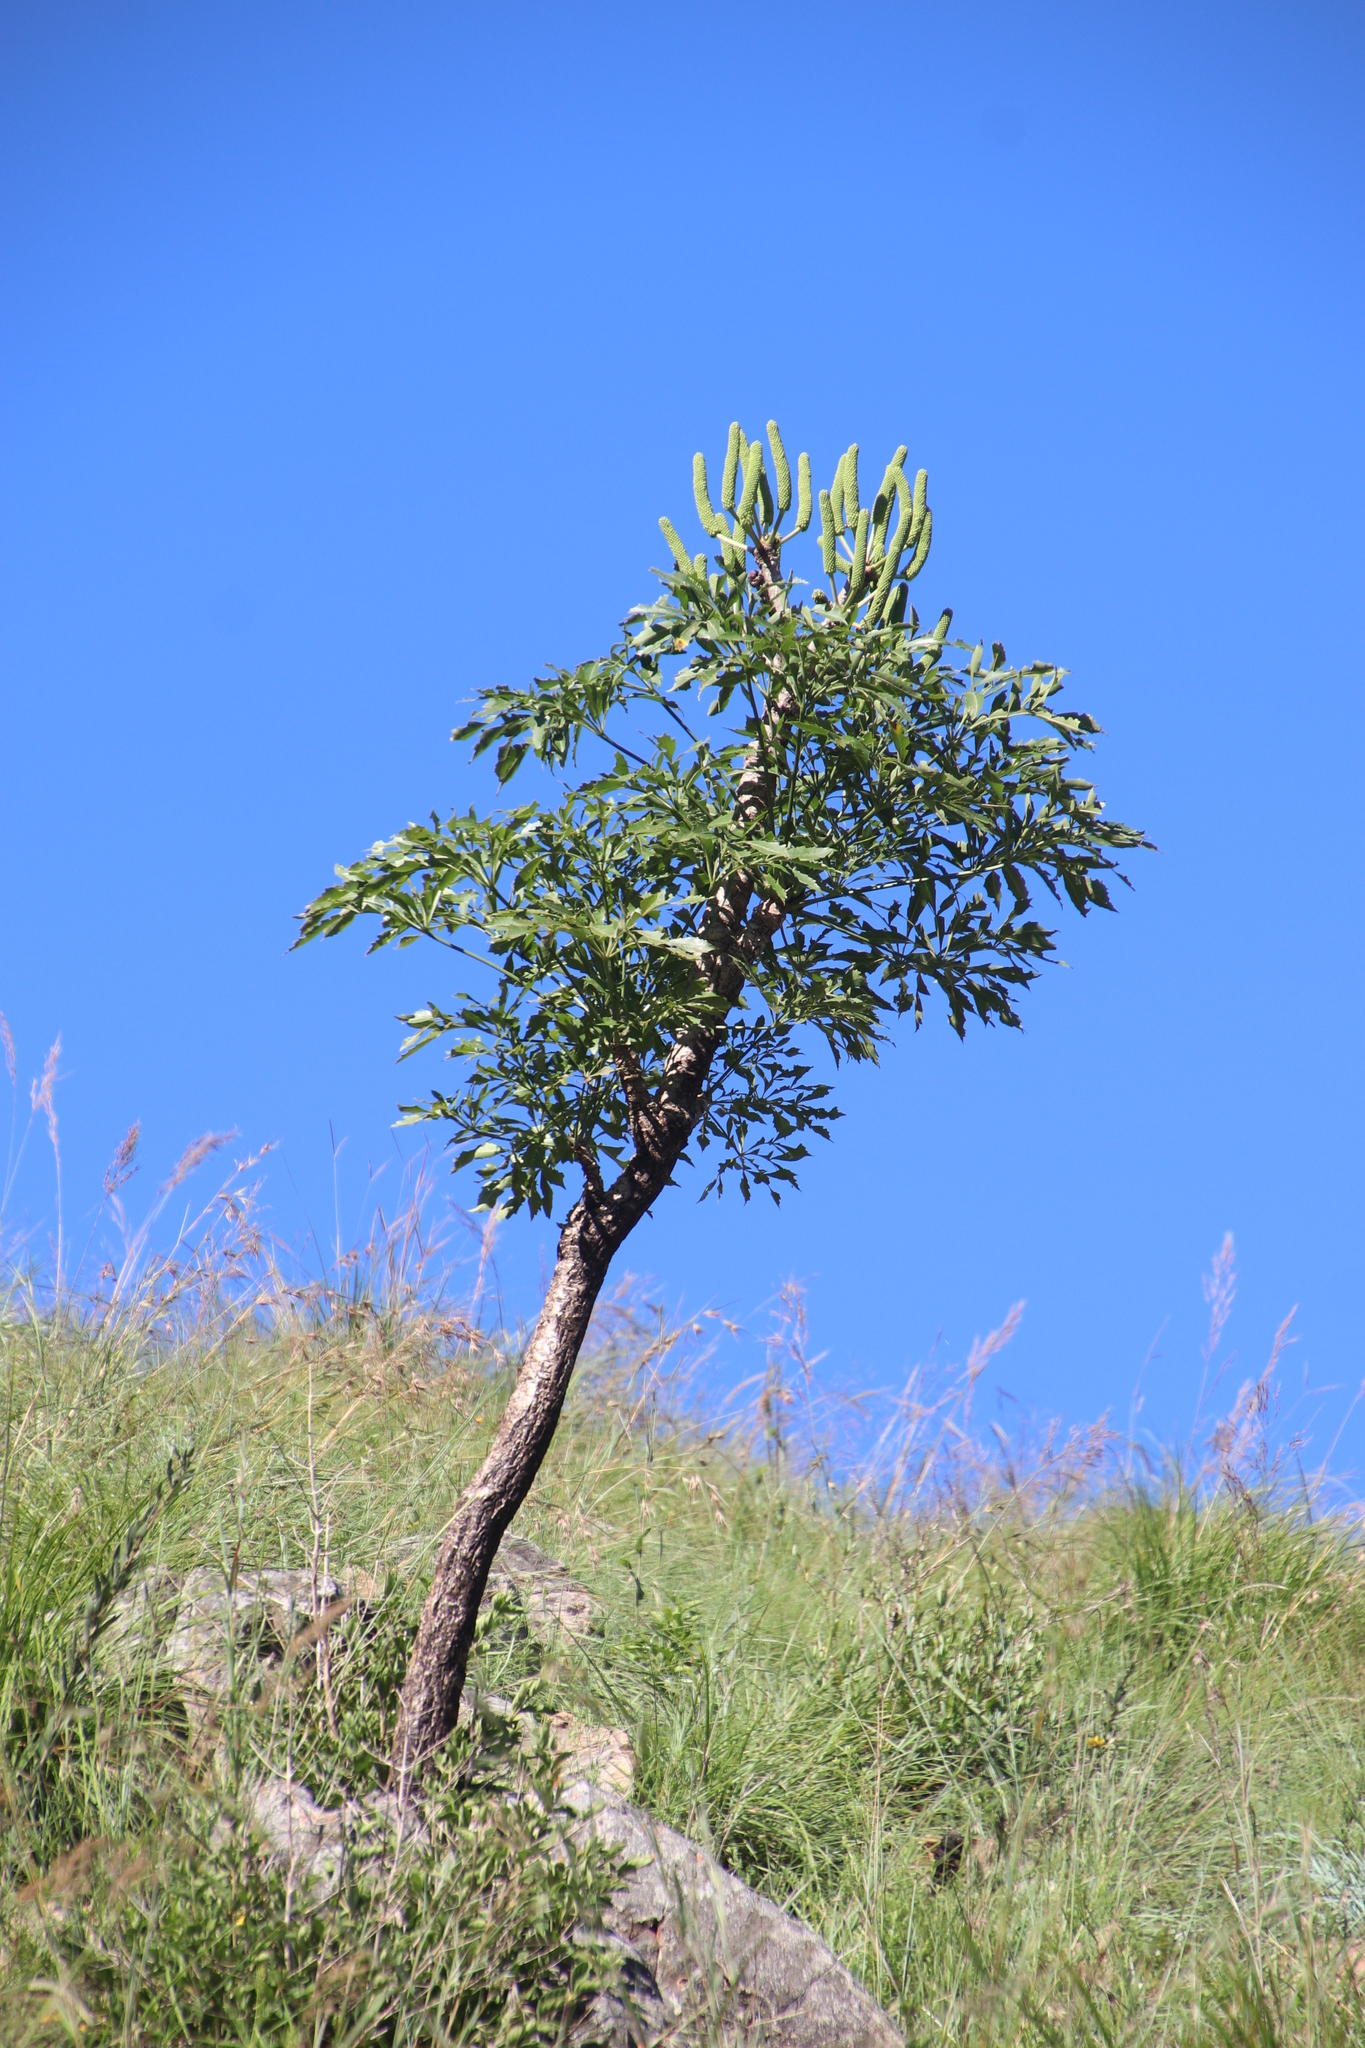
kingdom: Plantae
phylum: Tracheophyta
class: Magnoliopsida
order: Apiales
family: Araliaceae
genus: Cussonia
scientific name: Cussonia spicata
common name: Common cabbagetree
